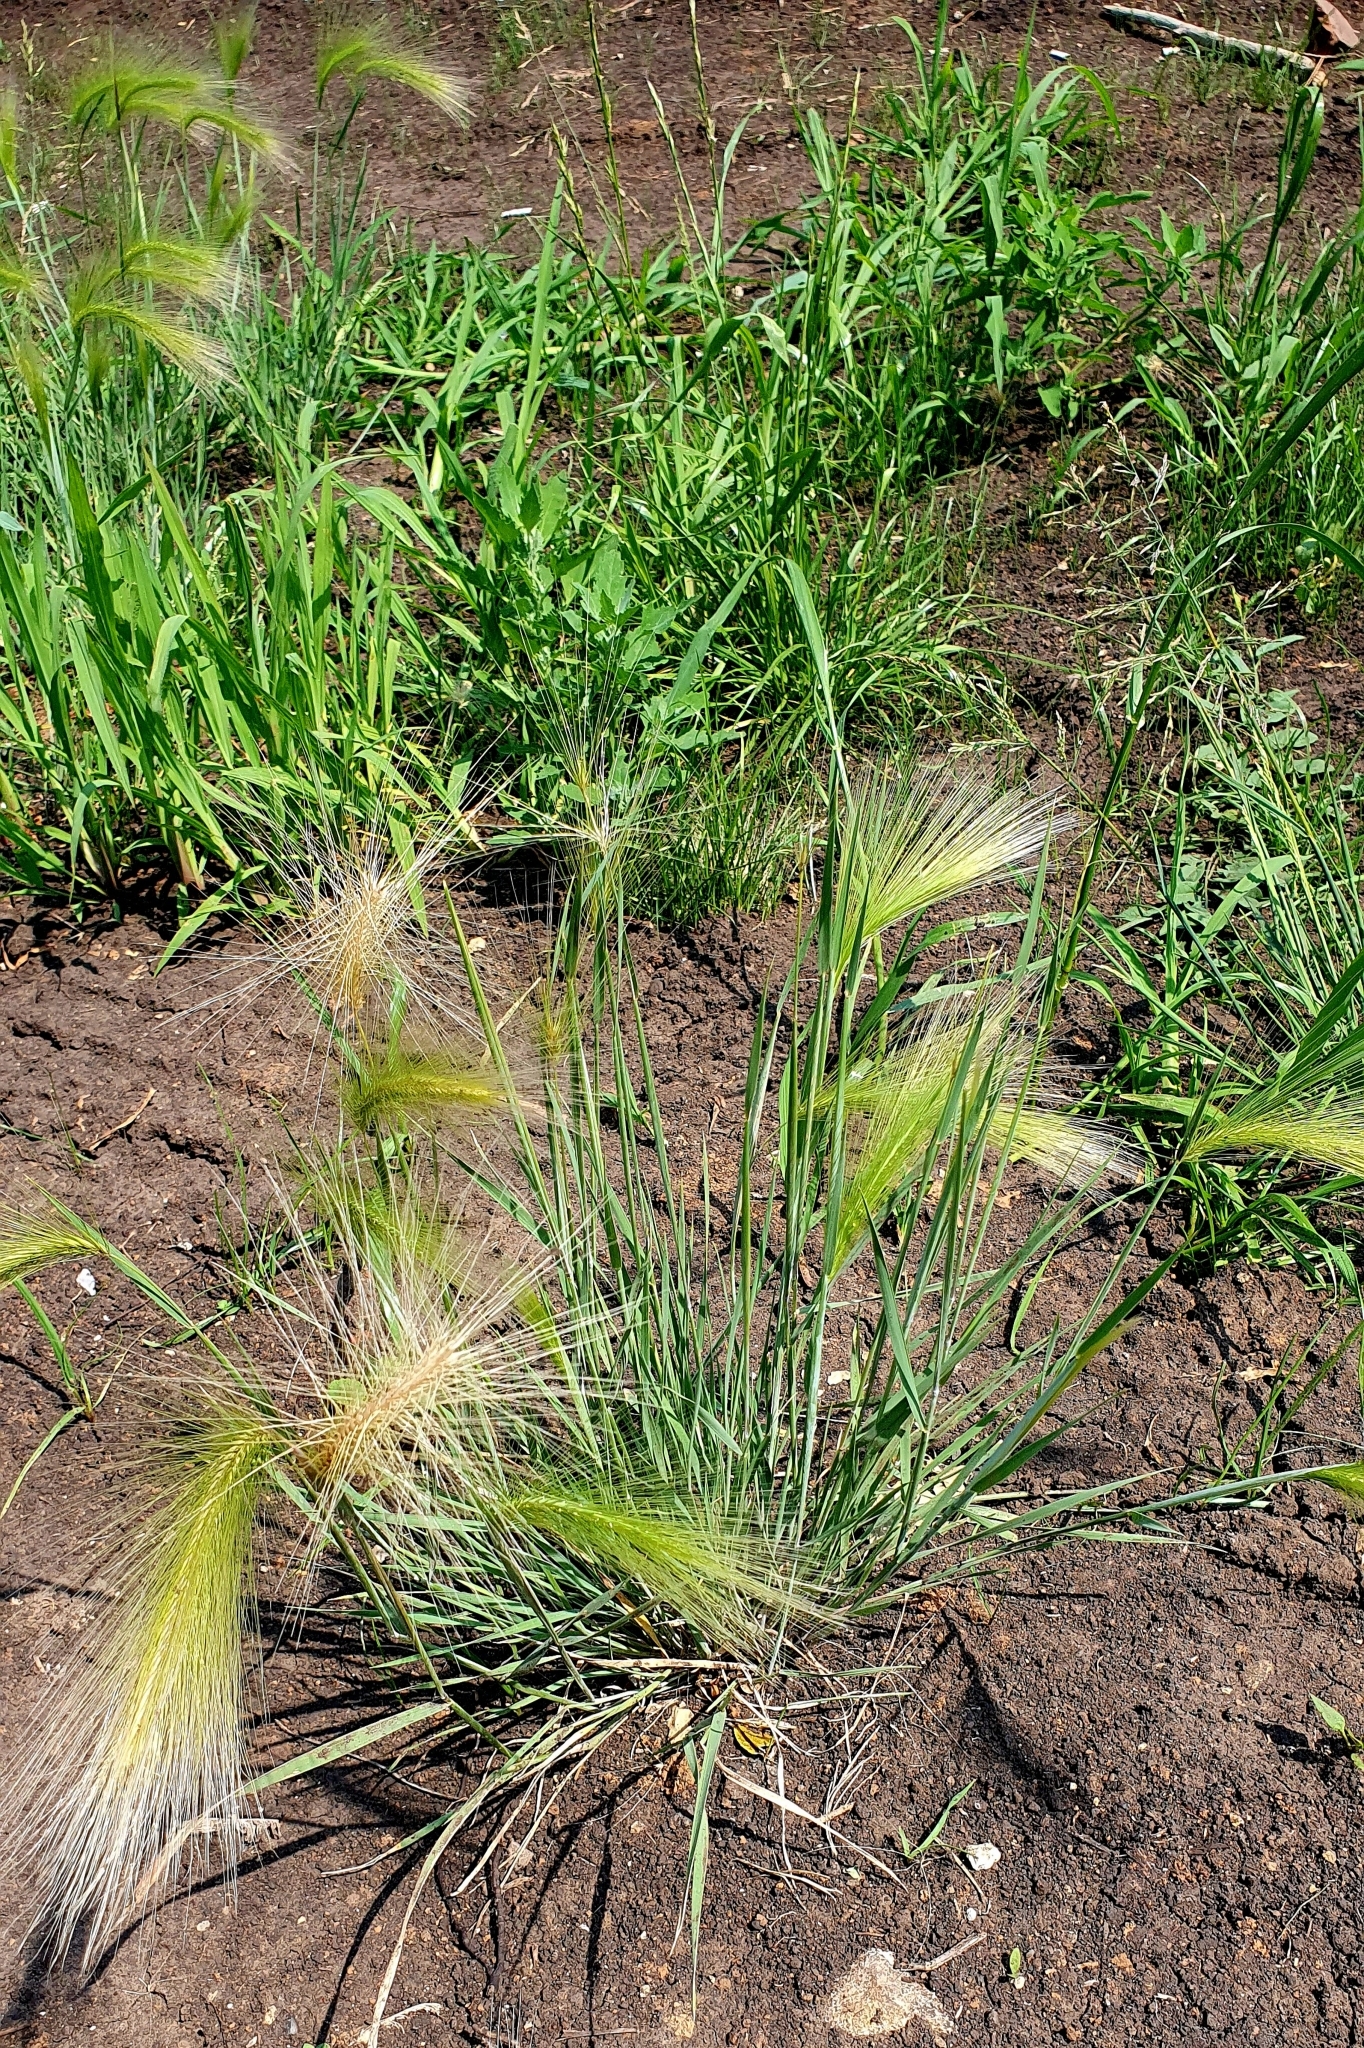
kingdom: Plantae
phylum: Tracheophyta
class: Liliopsida
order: Poales
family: Poaceae
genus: Hordeum
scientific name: Hordeum jubatum
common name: Foxtail barley
